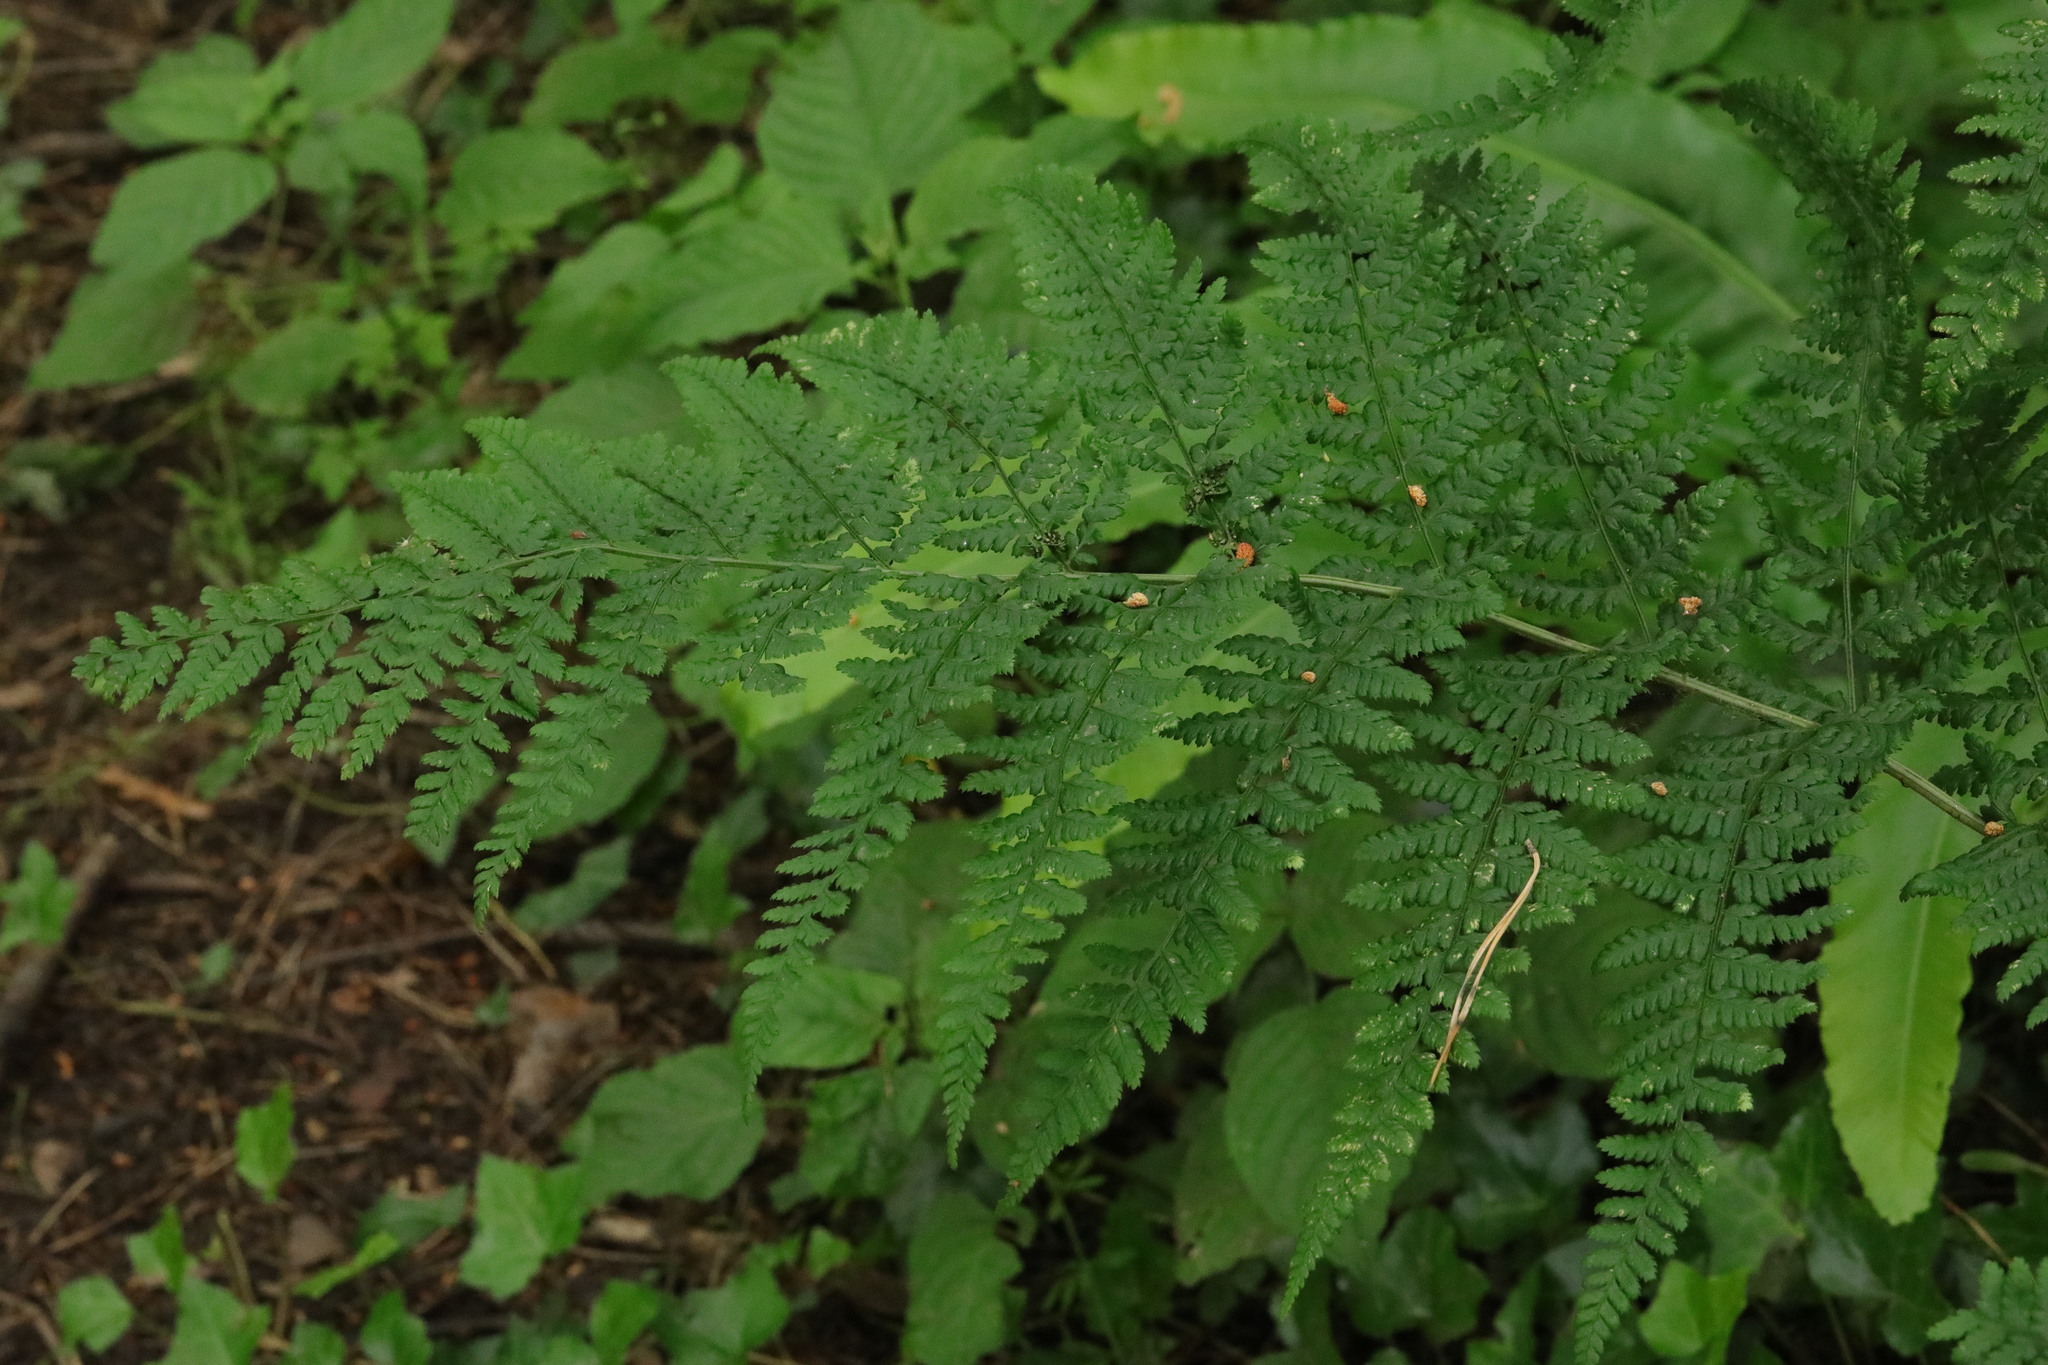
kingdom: Plantae
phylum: Tracheophyta
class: Polypodiopsida
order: Polypodiales
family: Dryopteridaceae
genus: Dryopteris
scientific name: Dryopteris dilatata
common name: Broad buckler-fern
